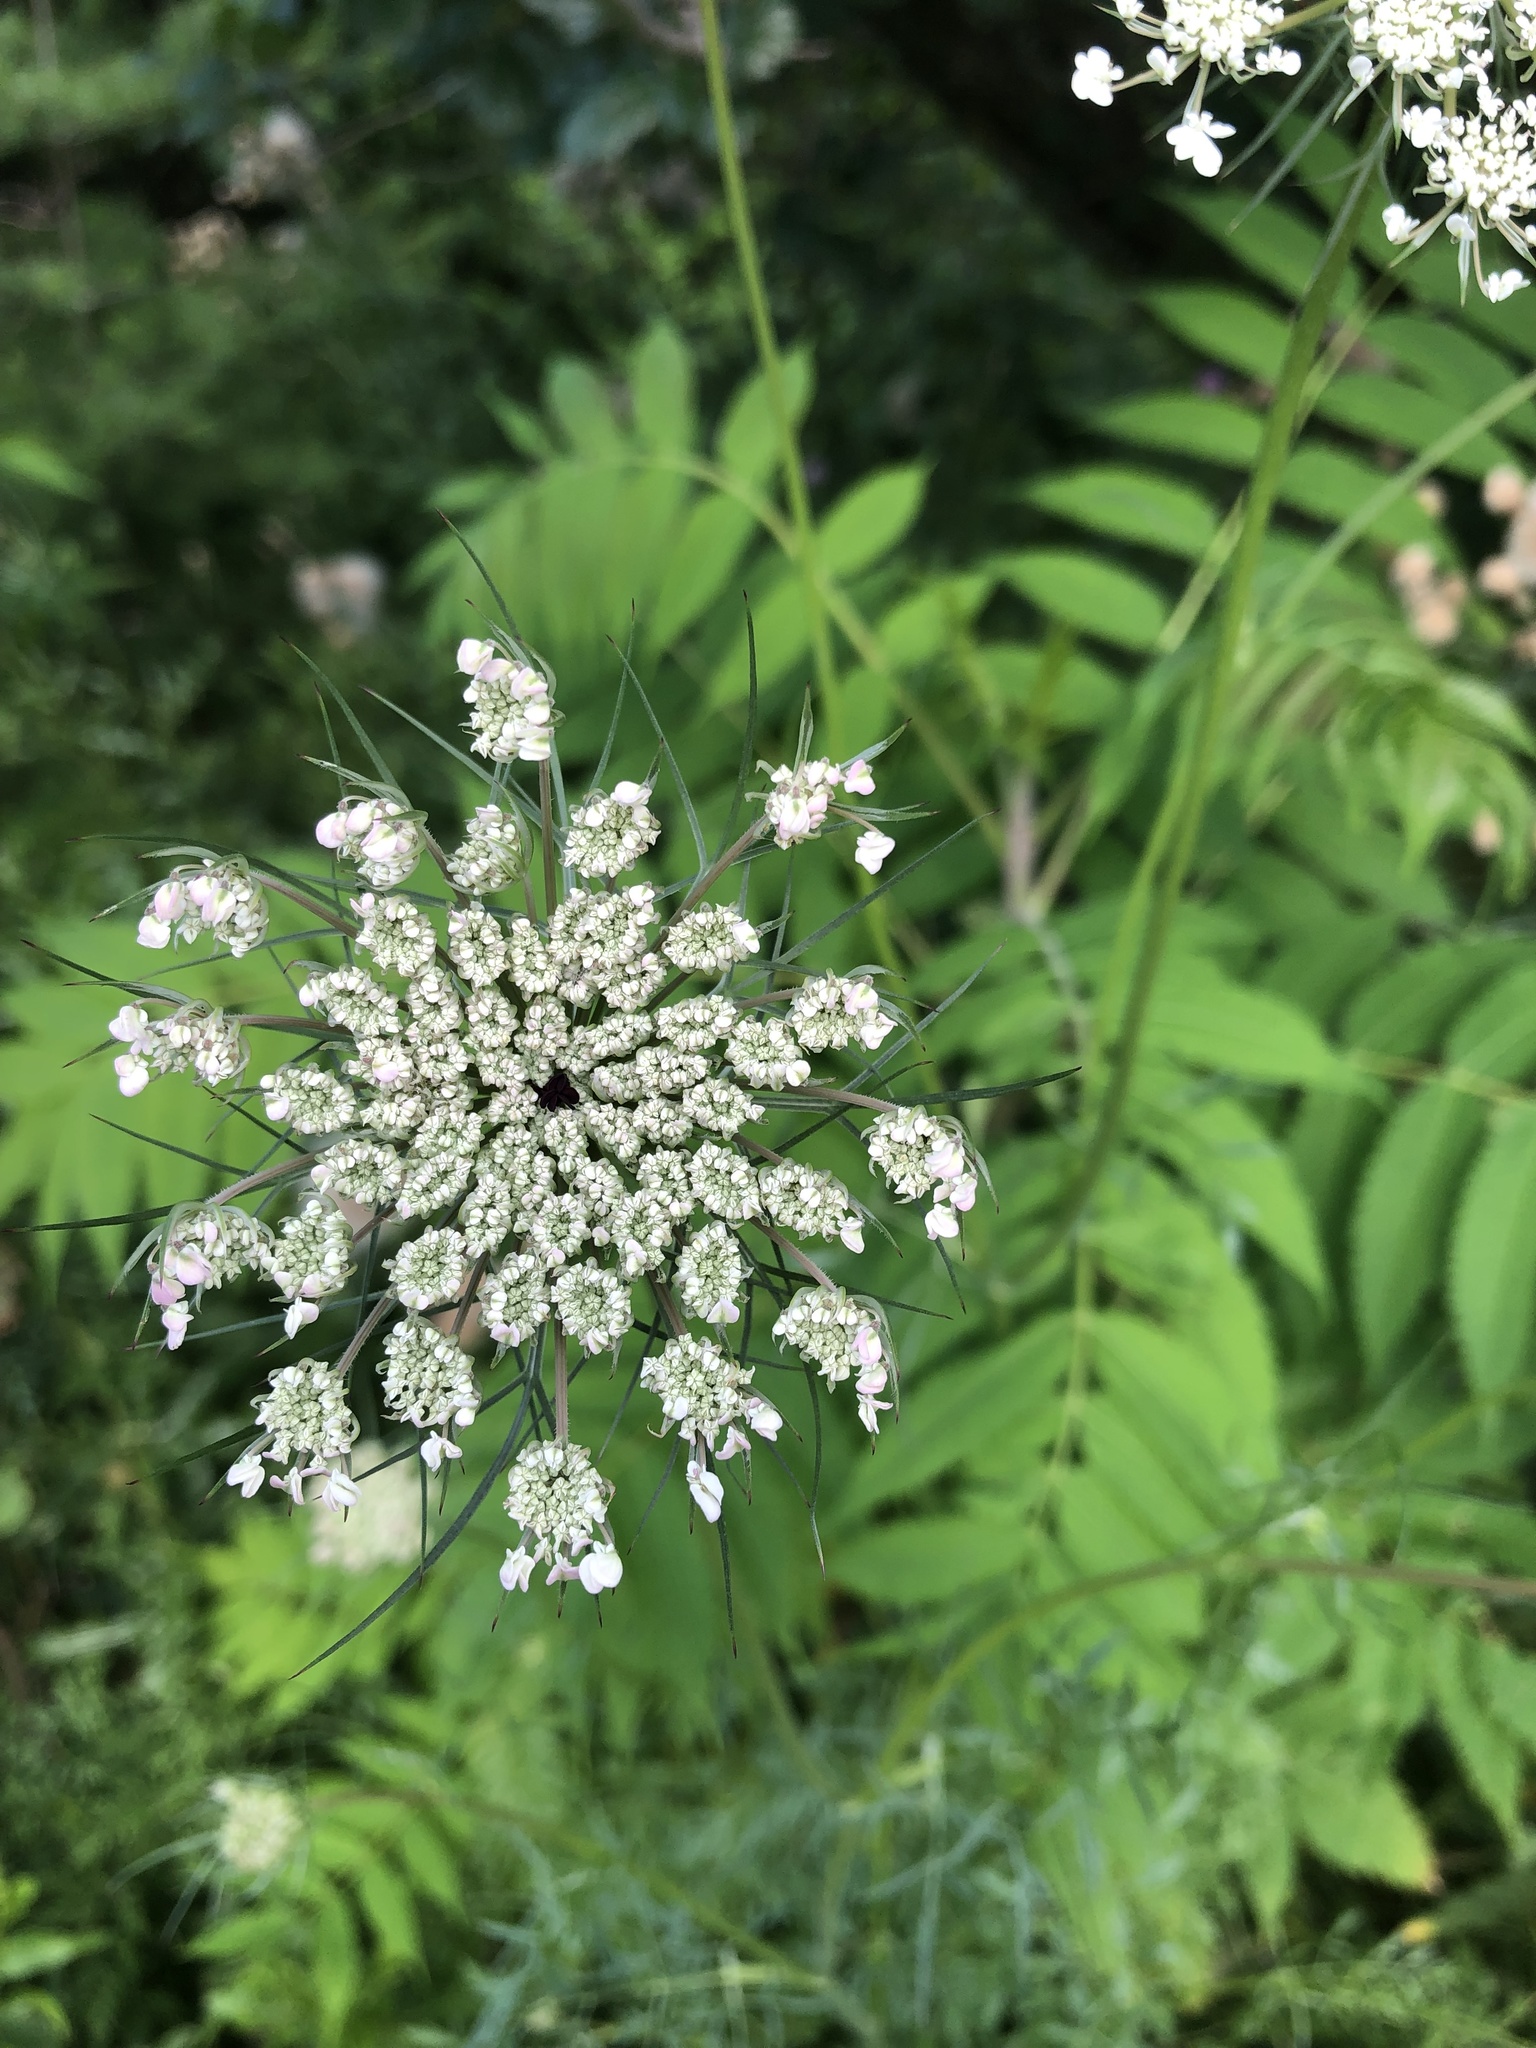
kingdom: Plantae
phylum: Tracheophyta
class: Magnoliopsida
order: Apiales
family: Apiaceae
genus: Daucus
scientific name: Daucus carota
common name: Wild carrot
